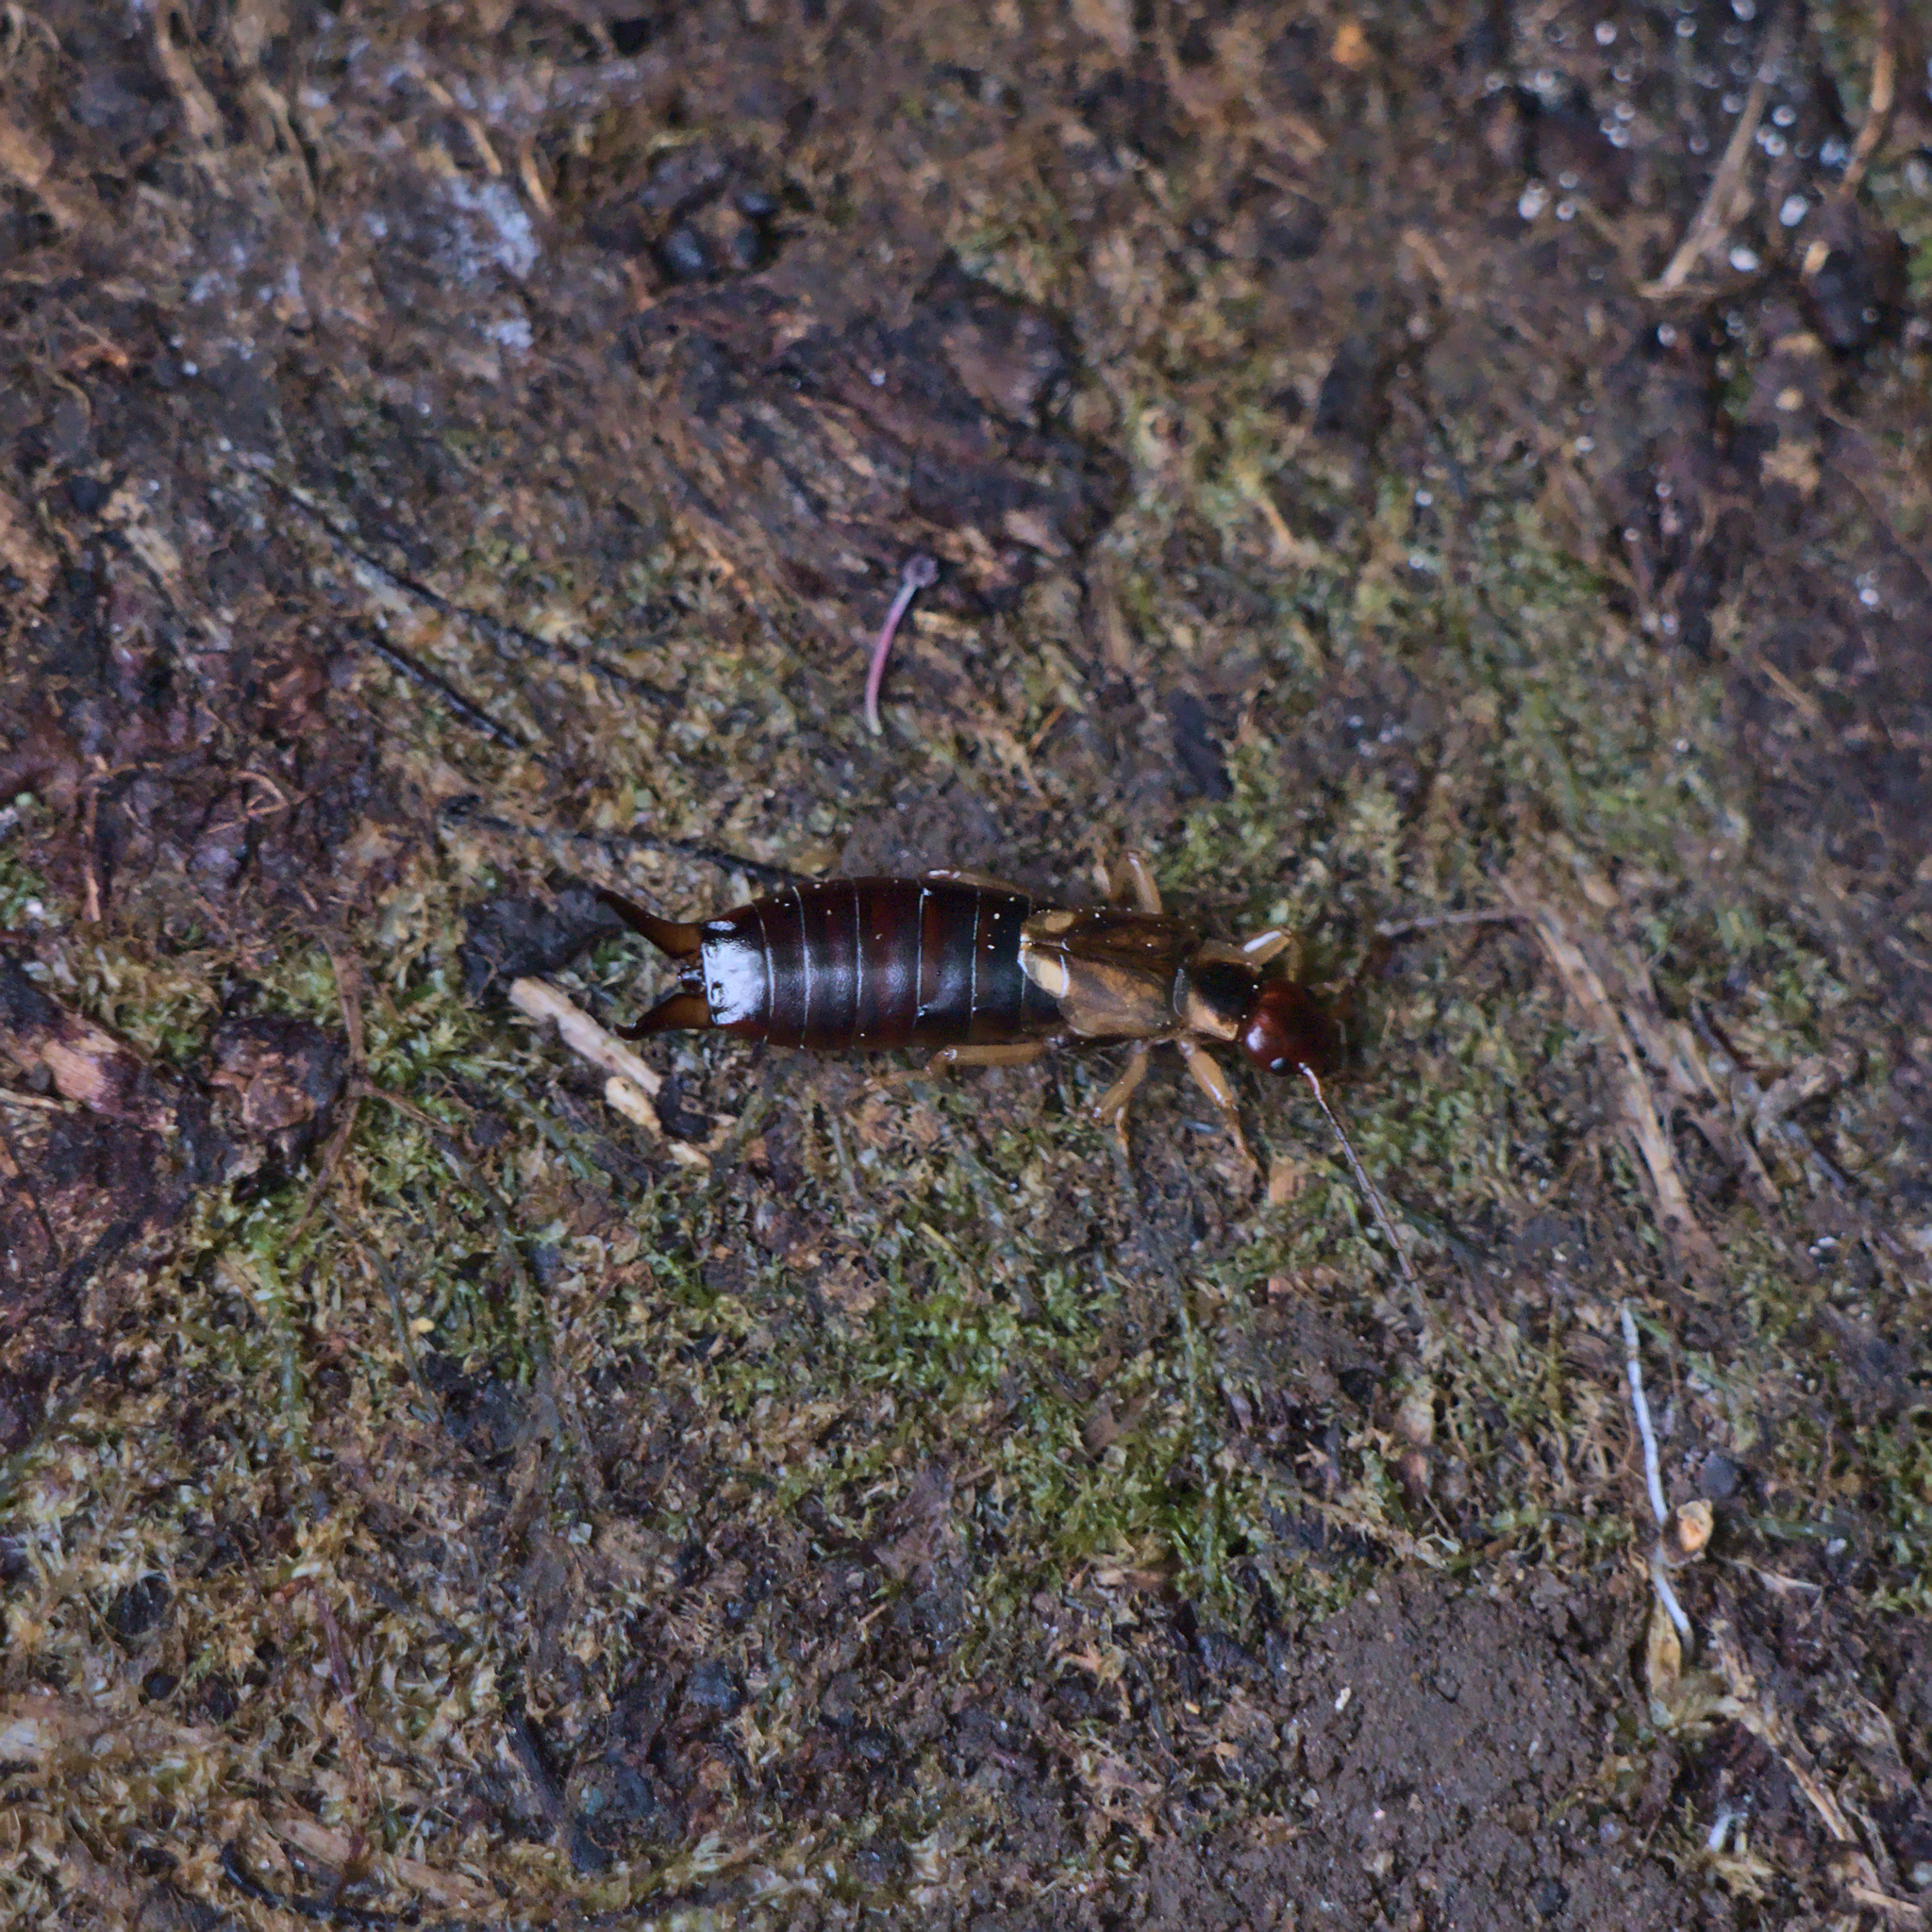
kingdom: Animalia
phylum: Arthropoda
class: Insecta
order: Dermaptera
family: Forficulidae
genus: Forficula
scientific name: Forficula
